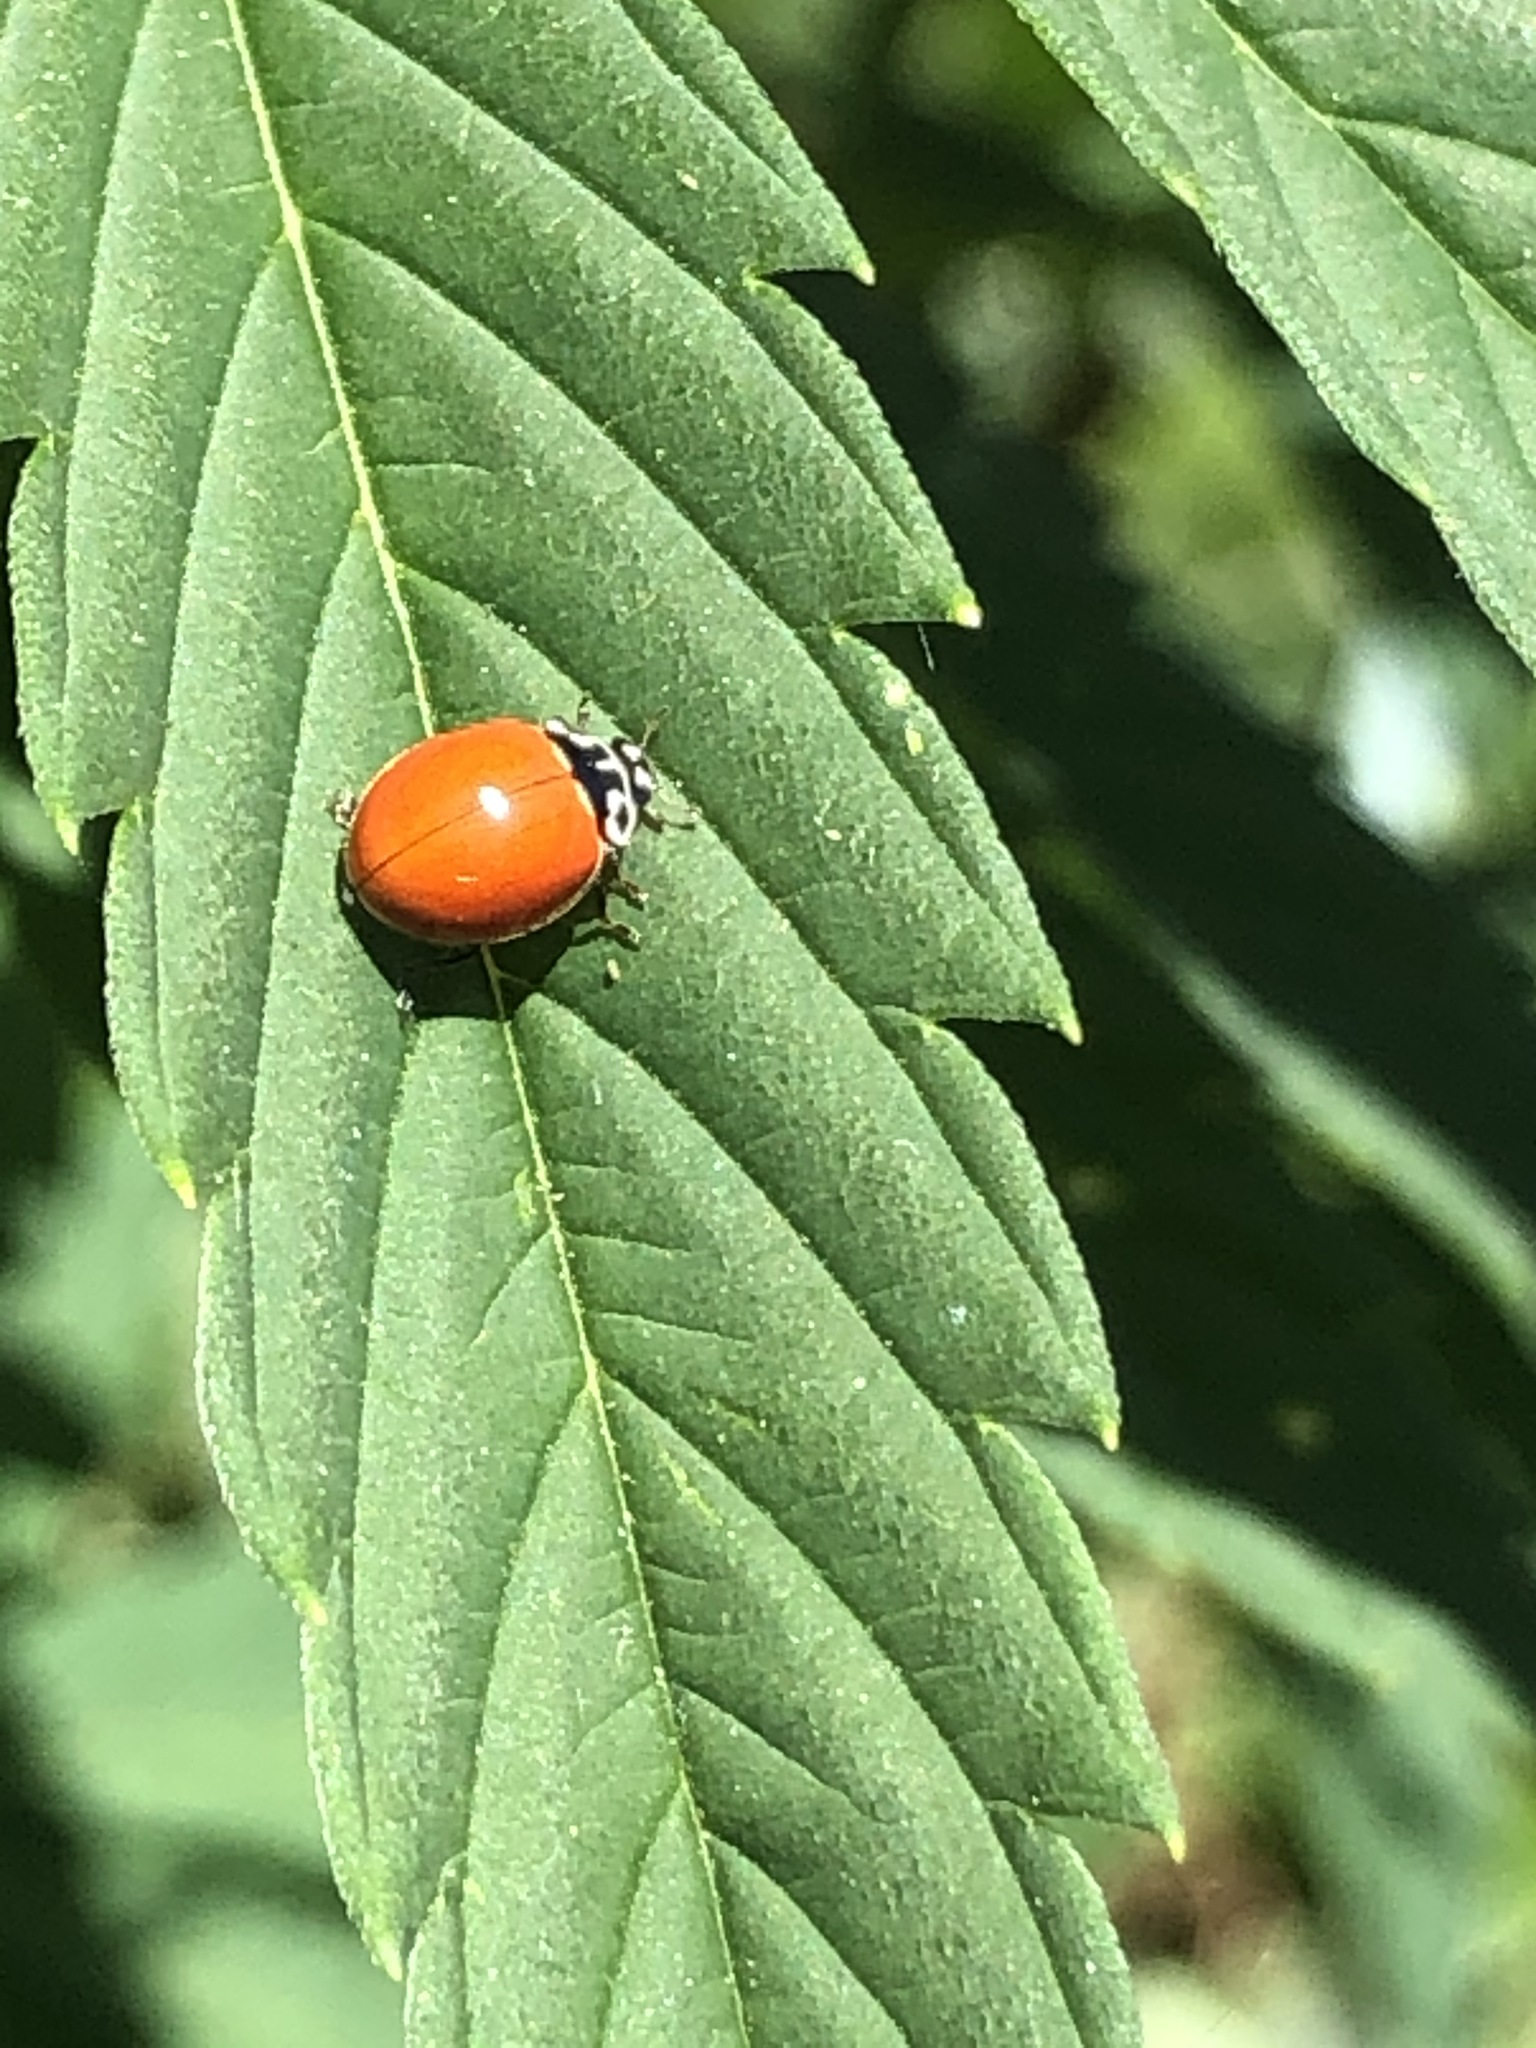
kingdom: Animalia
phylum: Arthropoda
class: Insecta
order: Coleoptera
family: Coccinellidae
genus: Cycloneda
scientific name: Cycloneda polita
